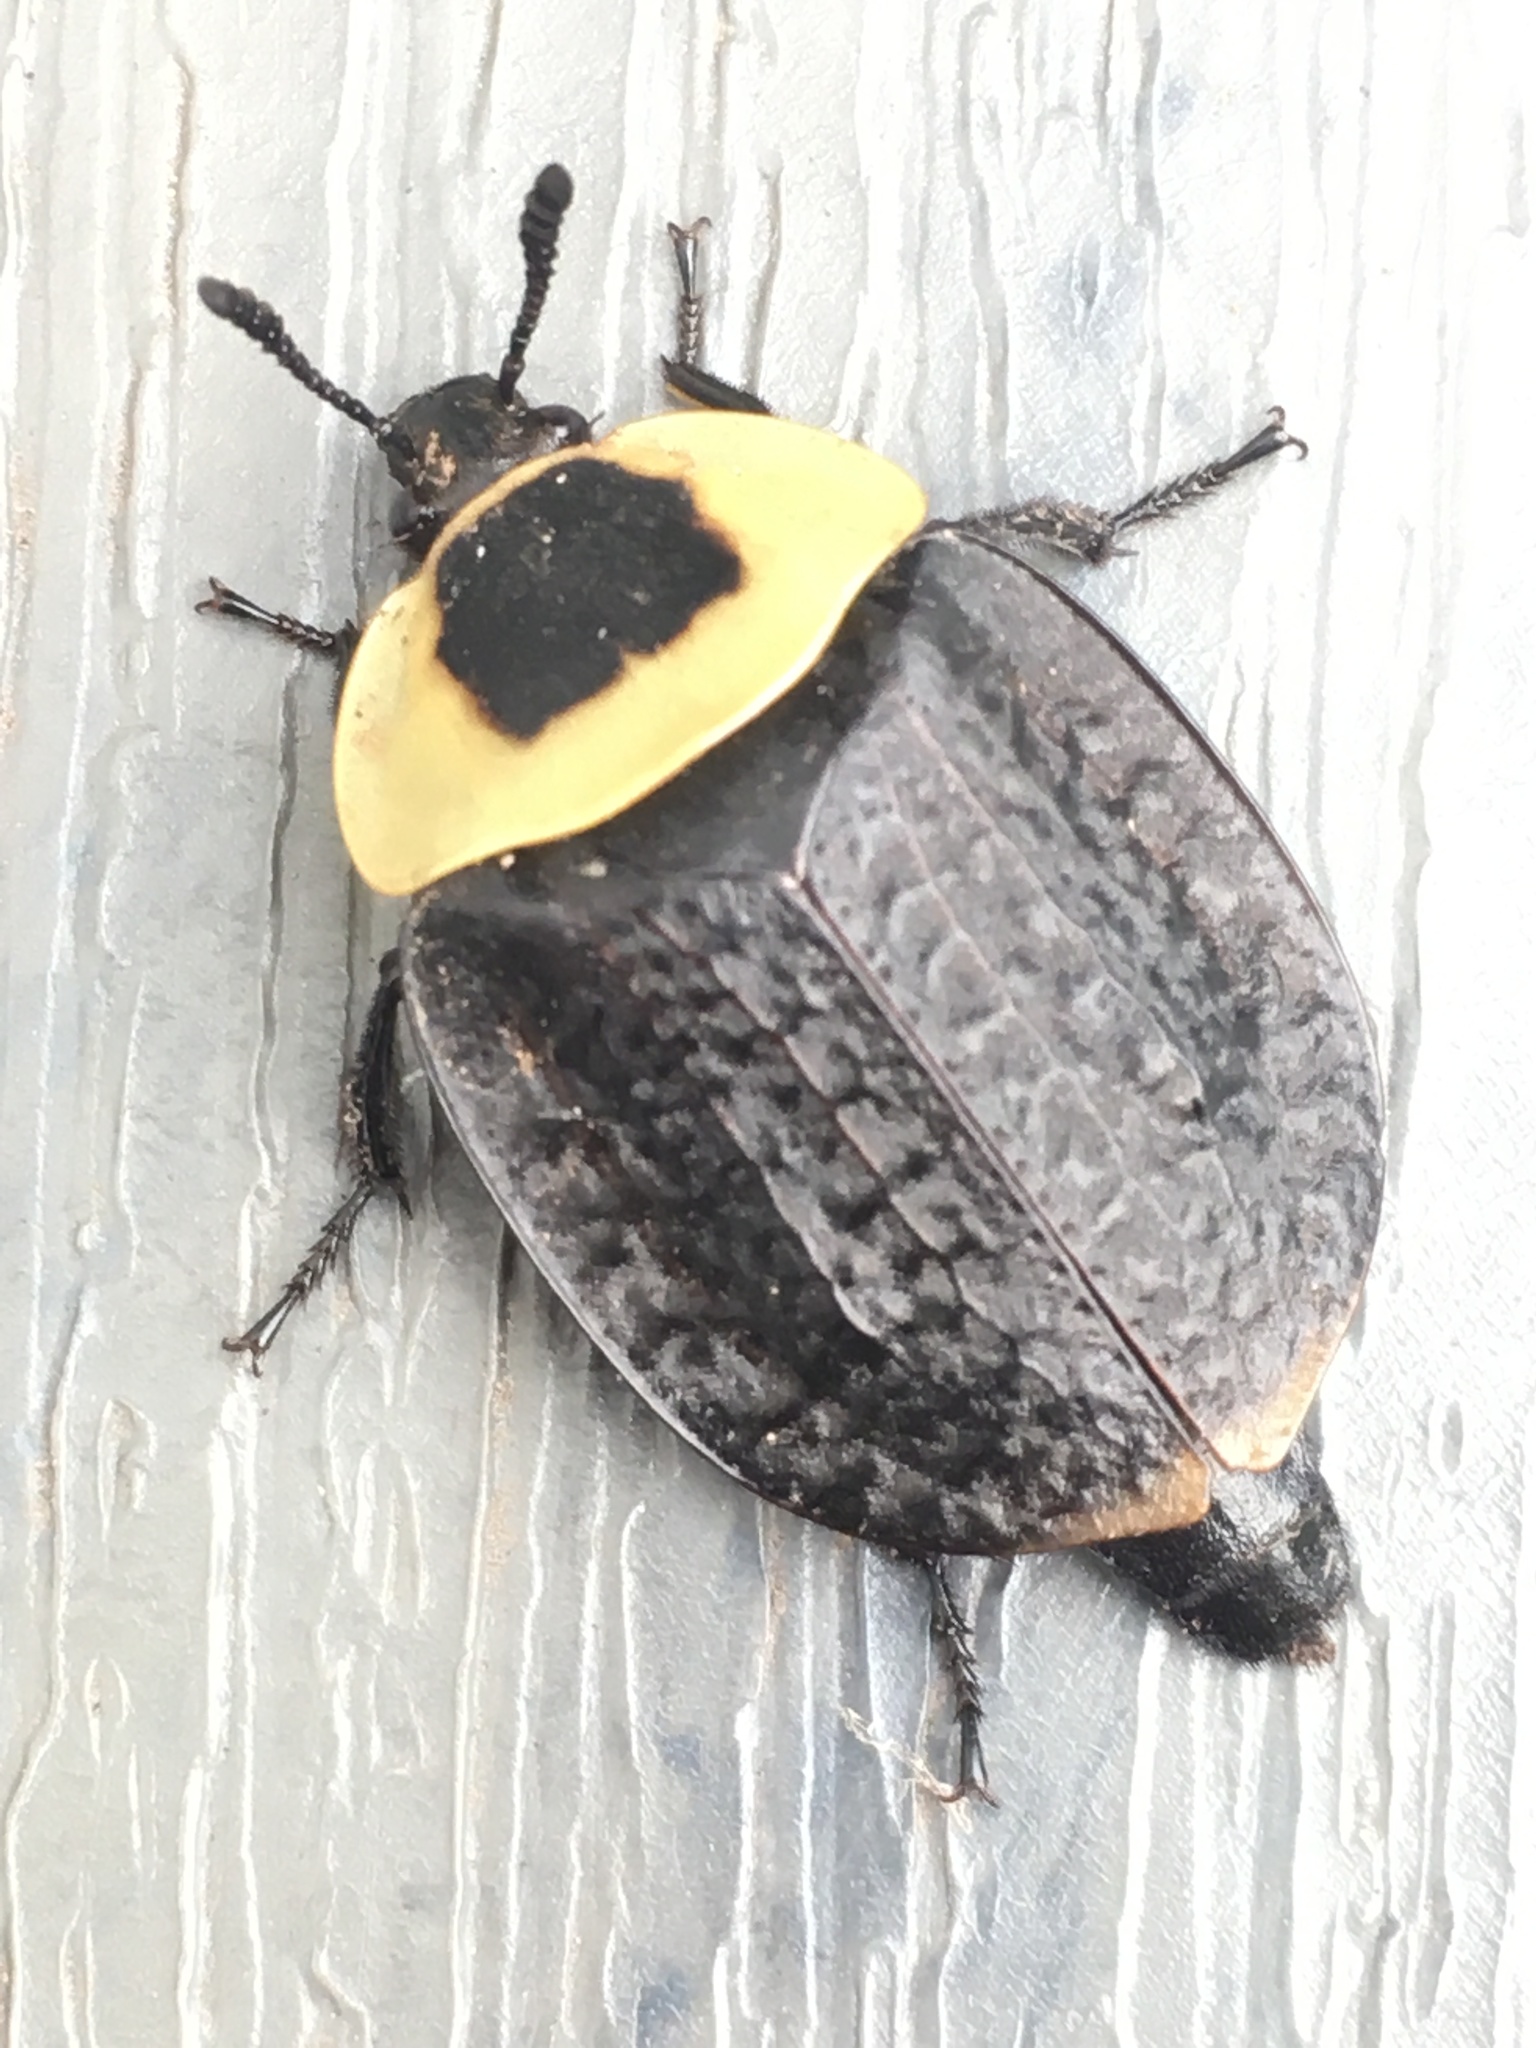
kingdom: Animalia
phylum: Arthropoda
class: Insecta
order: Coleoptera
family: Staphylinidae
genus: Necrophila
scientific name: Necrophila americana
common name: American carrion beetle
